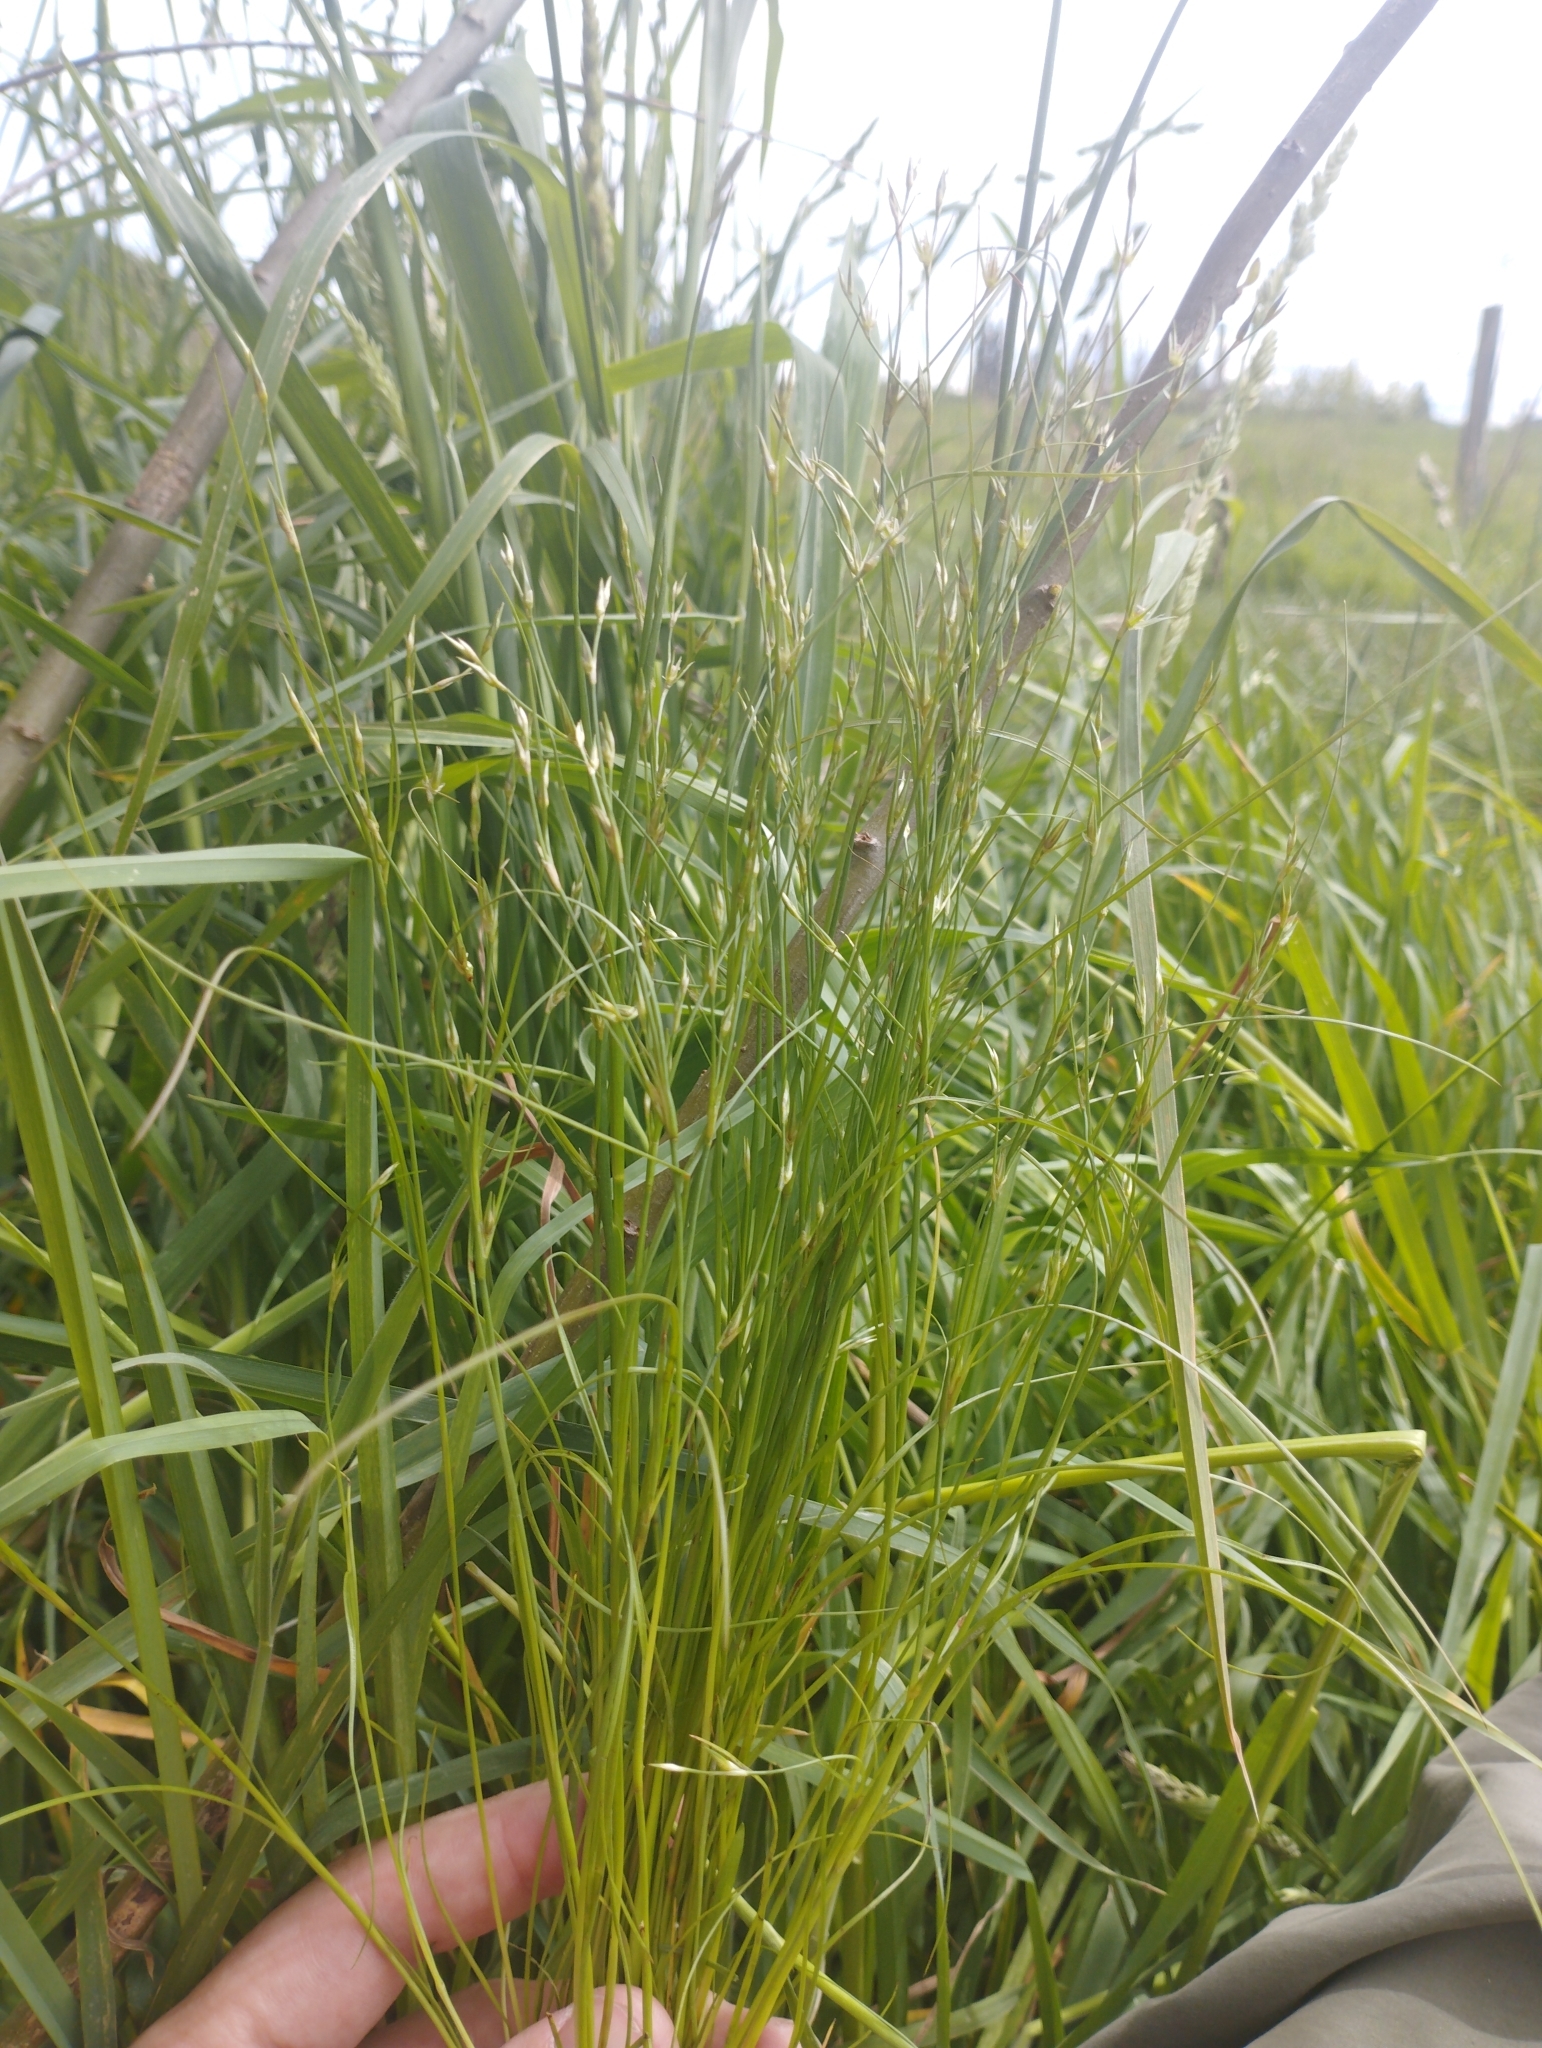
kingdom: Plantae
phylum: Tracheophyta
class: Liliopsida
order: Poales
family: Juncaceae
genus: Juncus
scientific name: Juncus tenuis
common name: Slender rush
